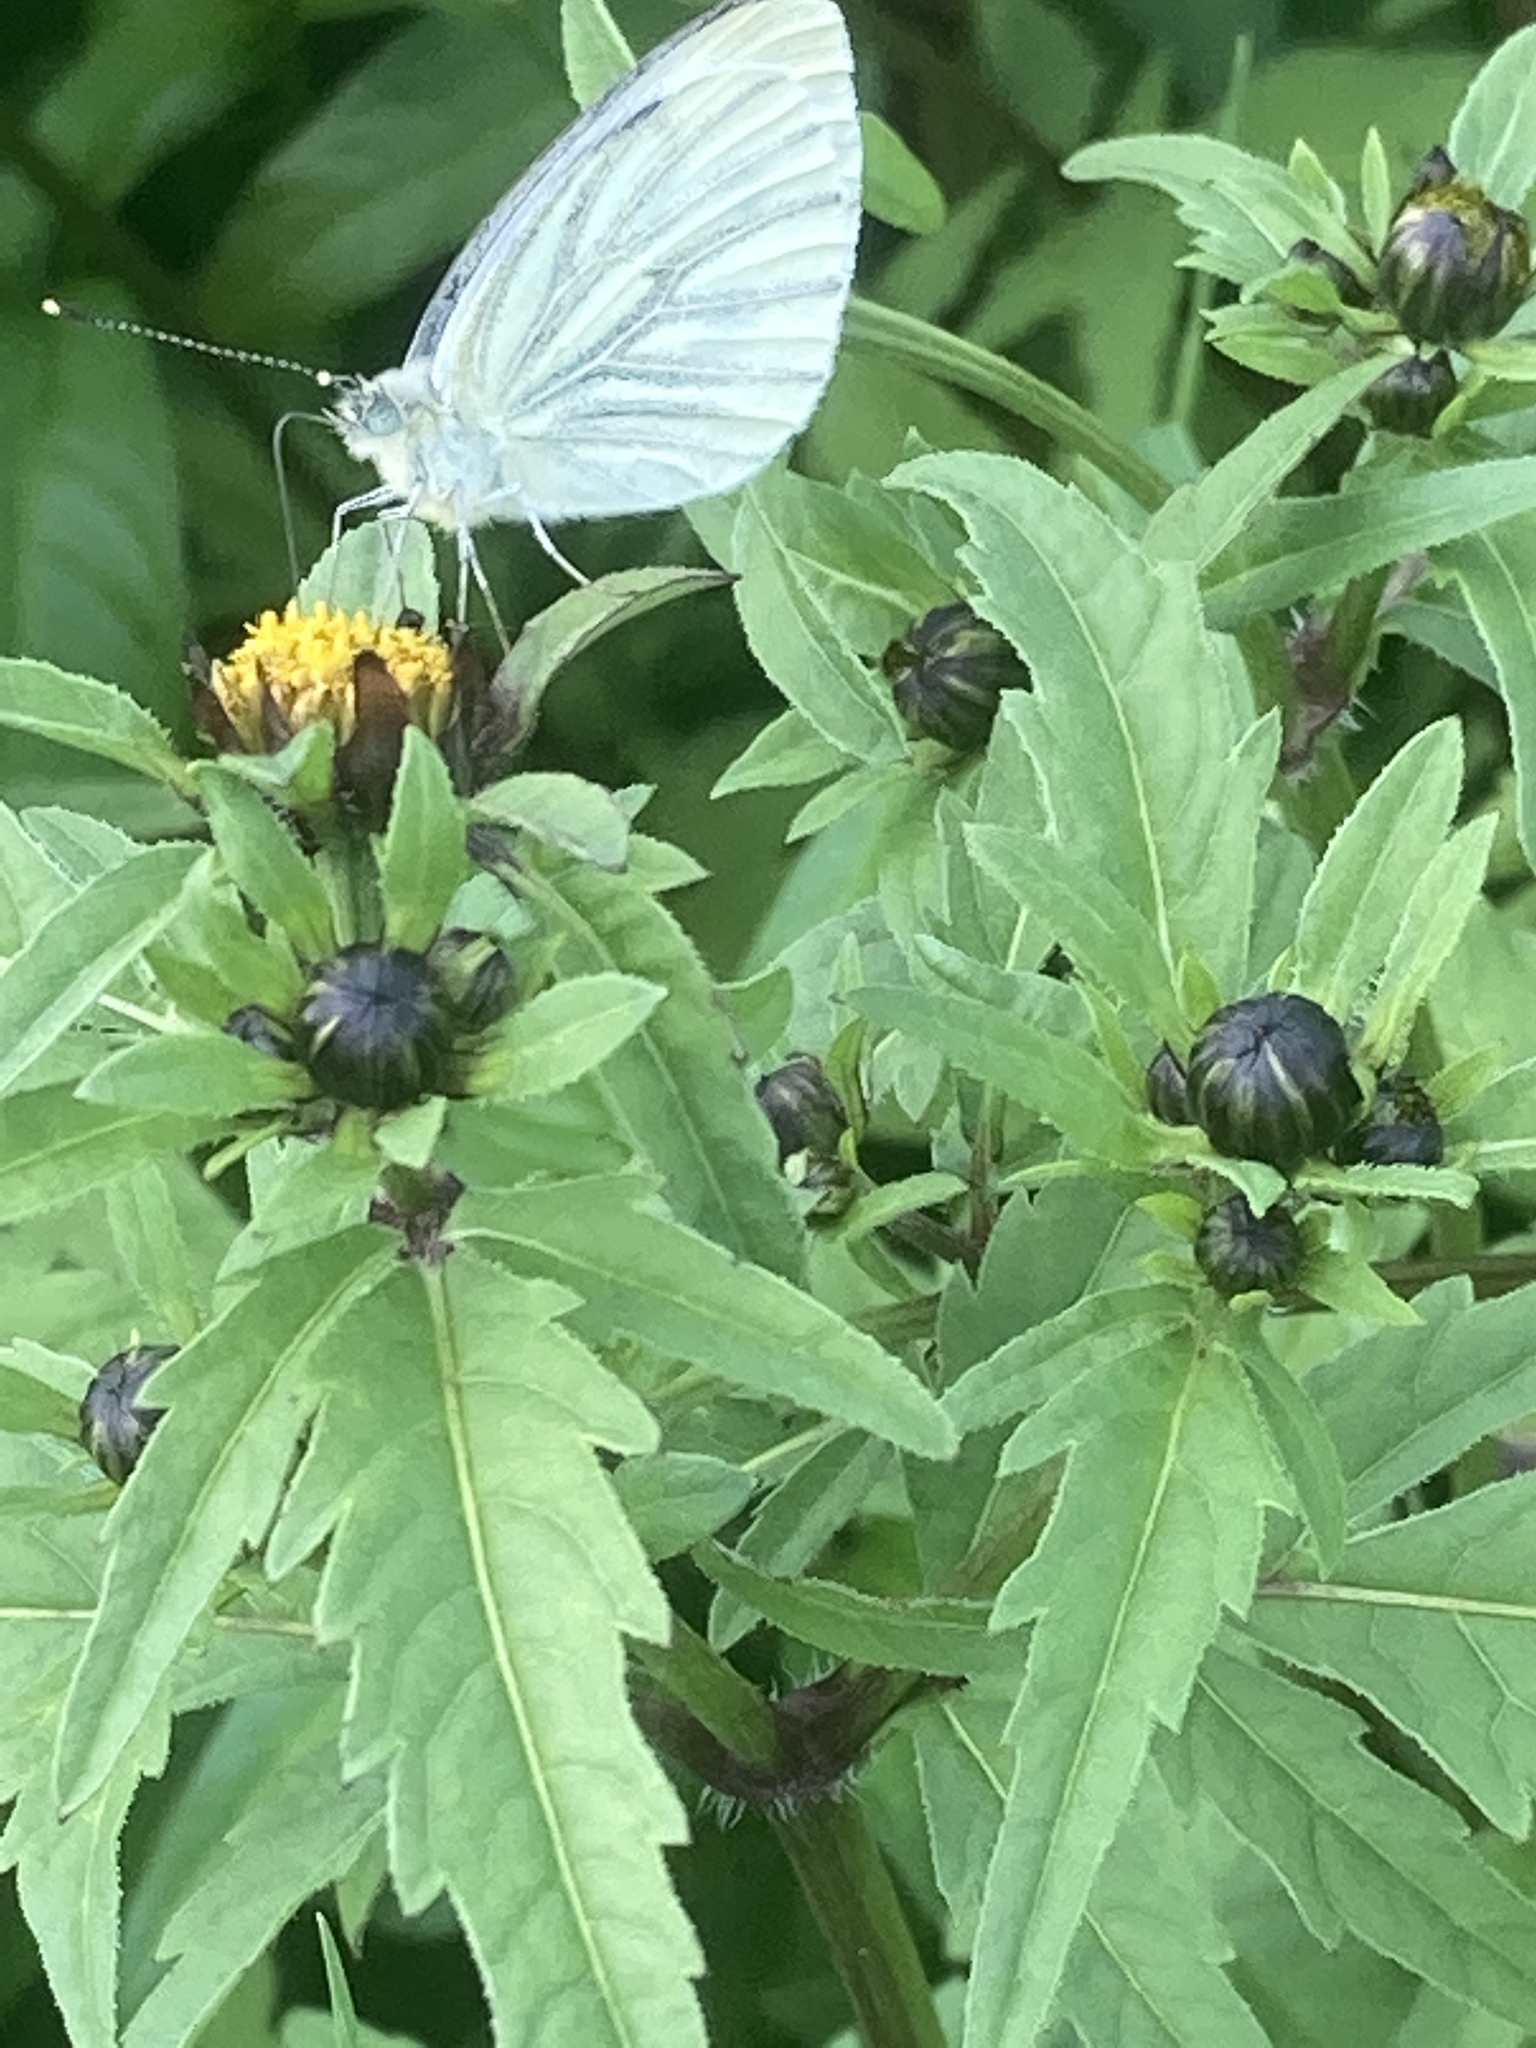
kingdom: Animalia
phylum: Arthropoda
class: Insecta
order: Lepidoptera
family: Pieridae
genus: Pieris
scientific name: Pieris napi
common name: Green-veined white
